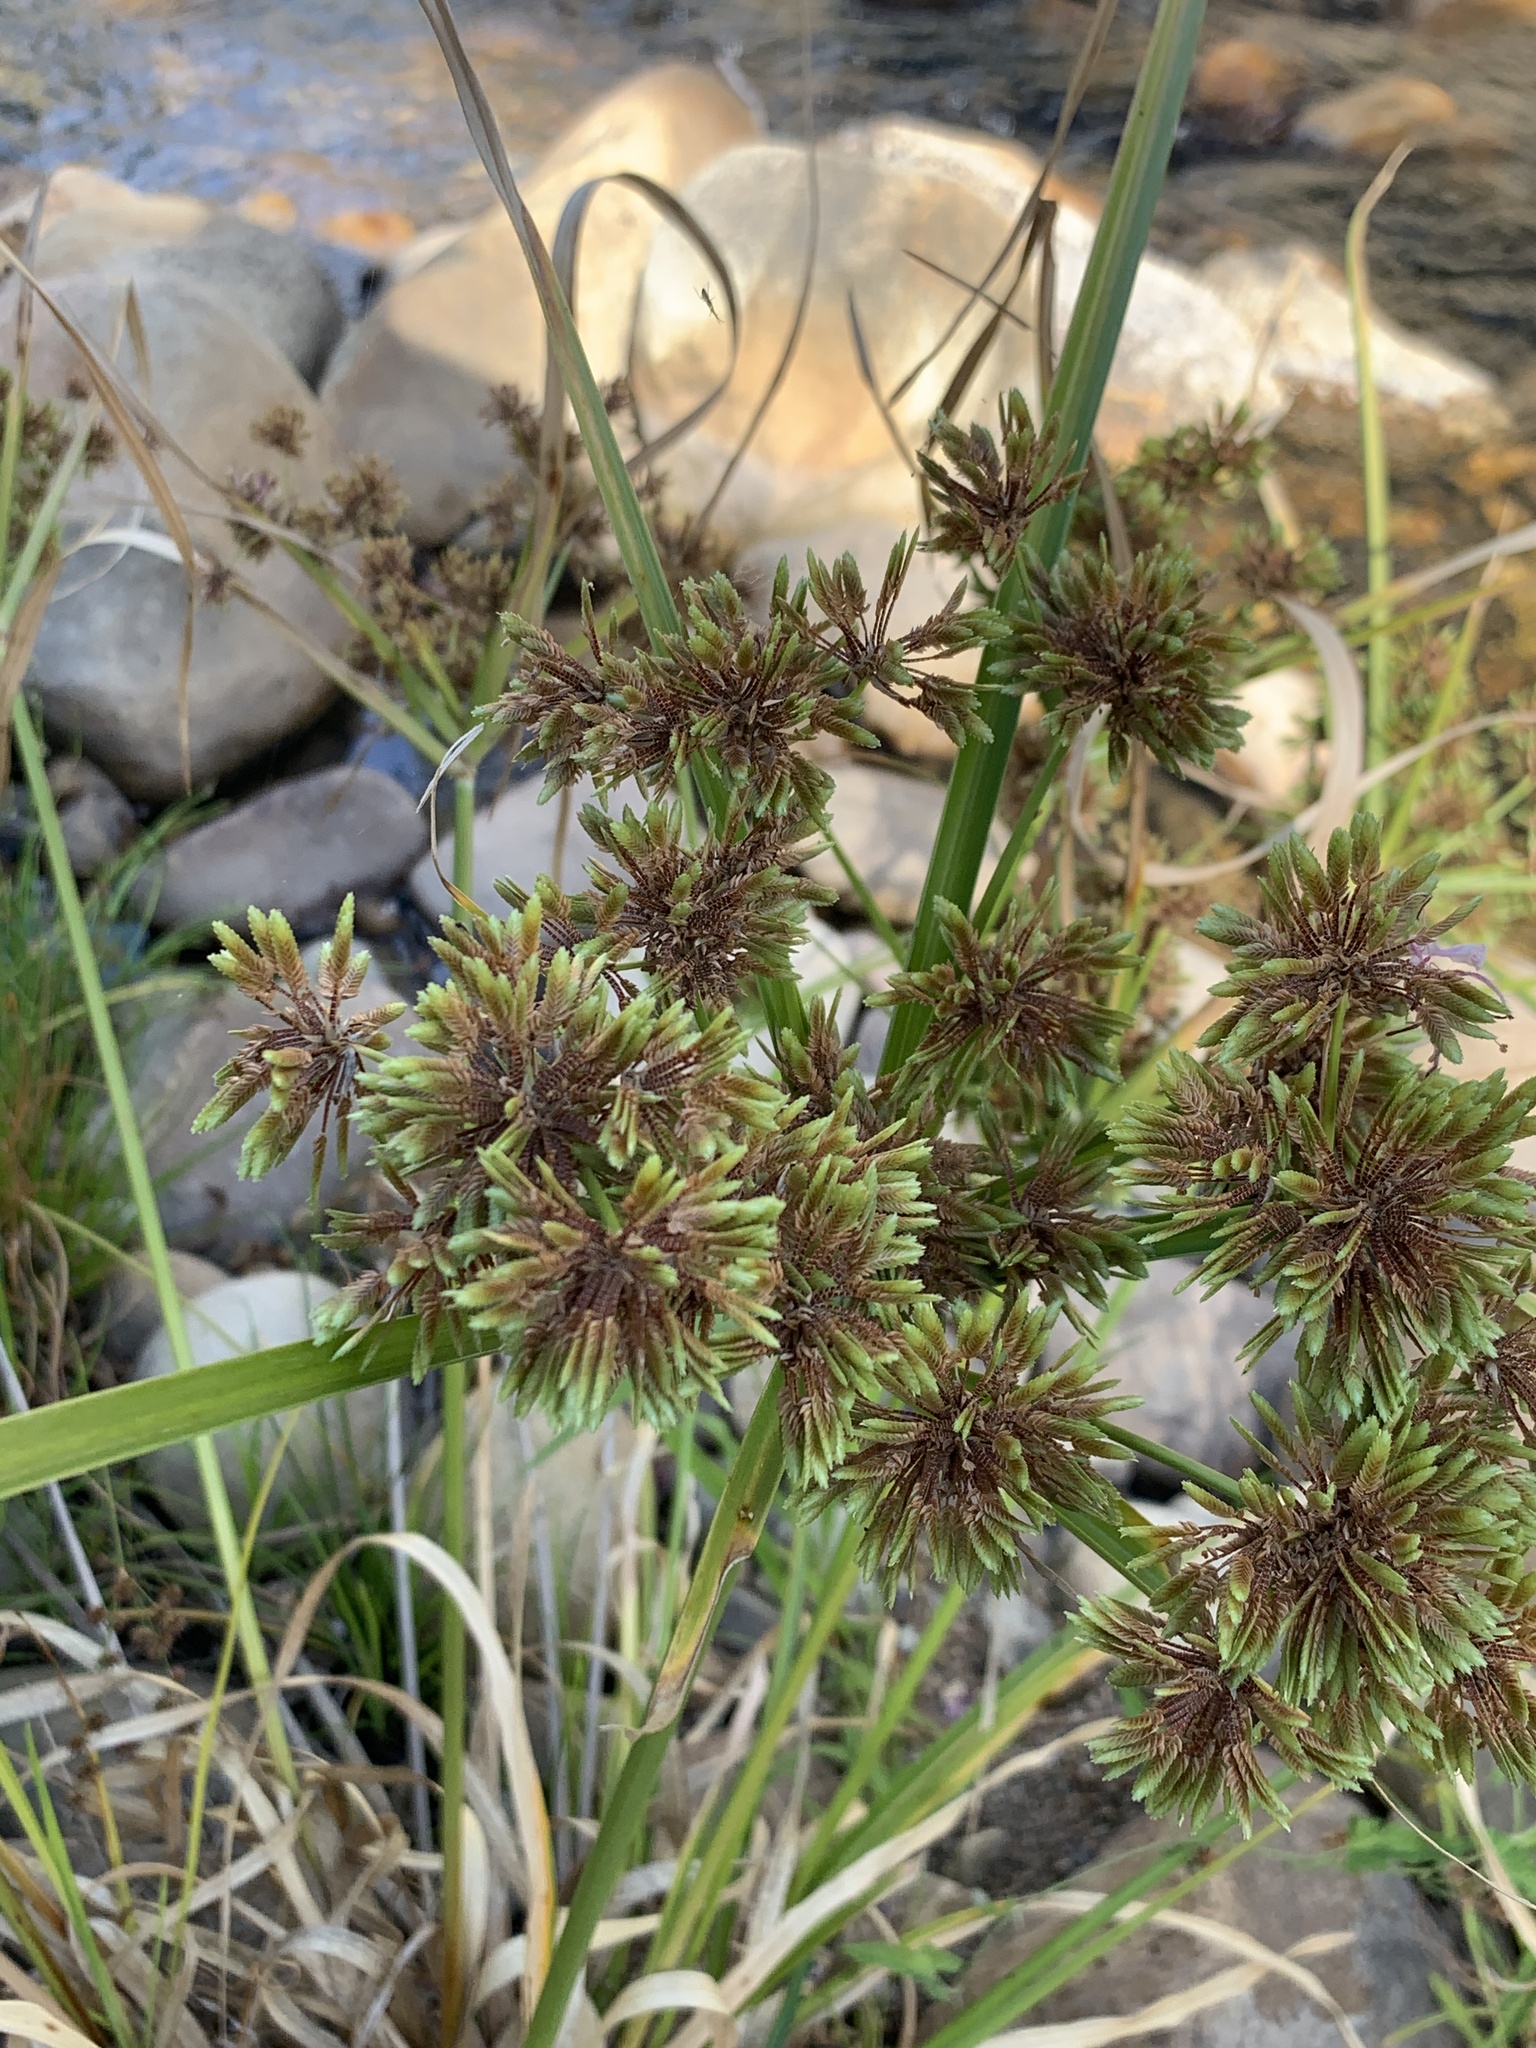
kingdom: Plantae
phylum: Tracheophyta
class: Liliopsida
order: Poales
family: Cyperaceae
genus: Cyperus
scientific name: Cyperus eragrostis
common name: Tall flatsedge
